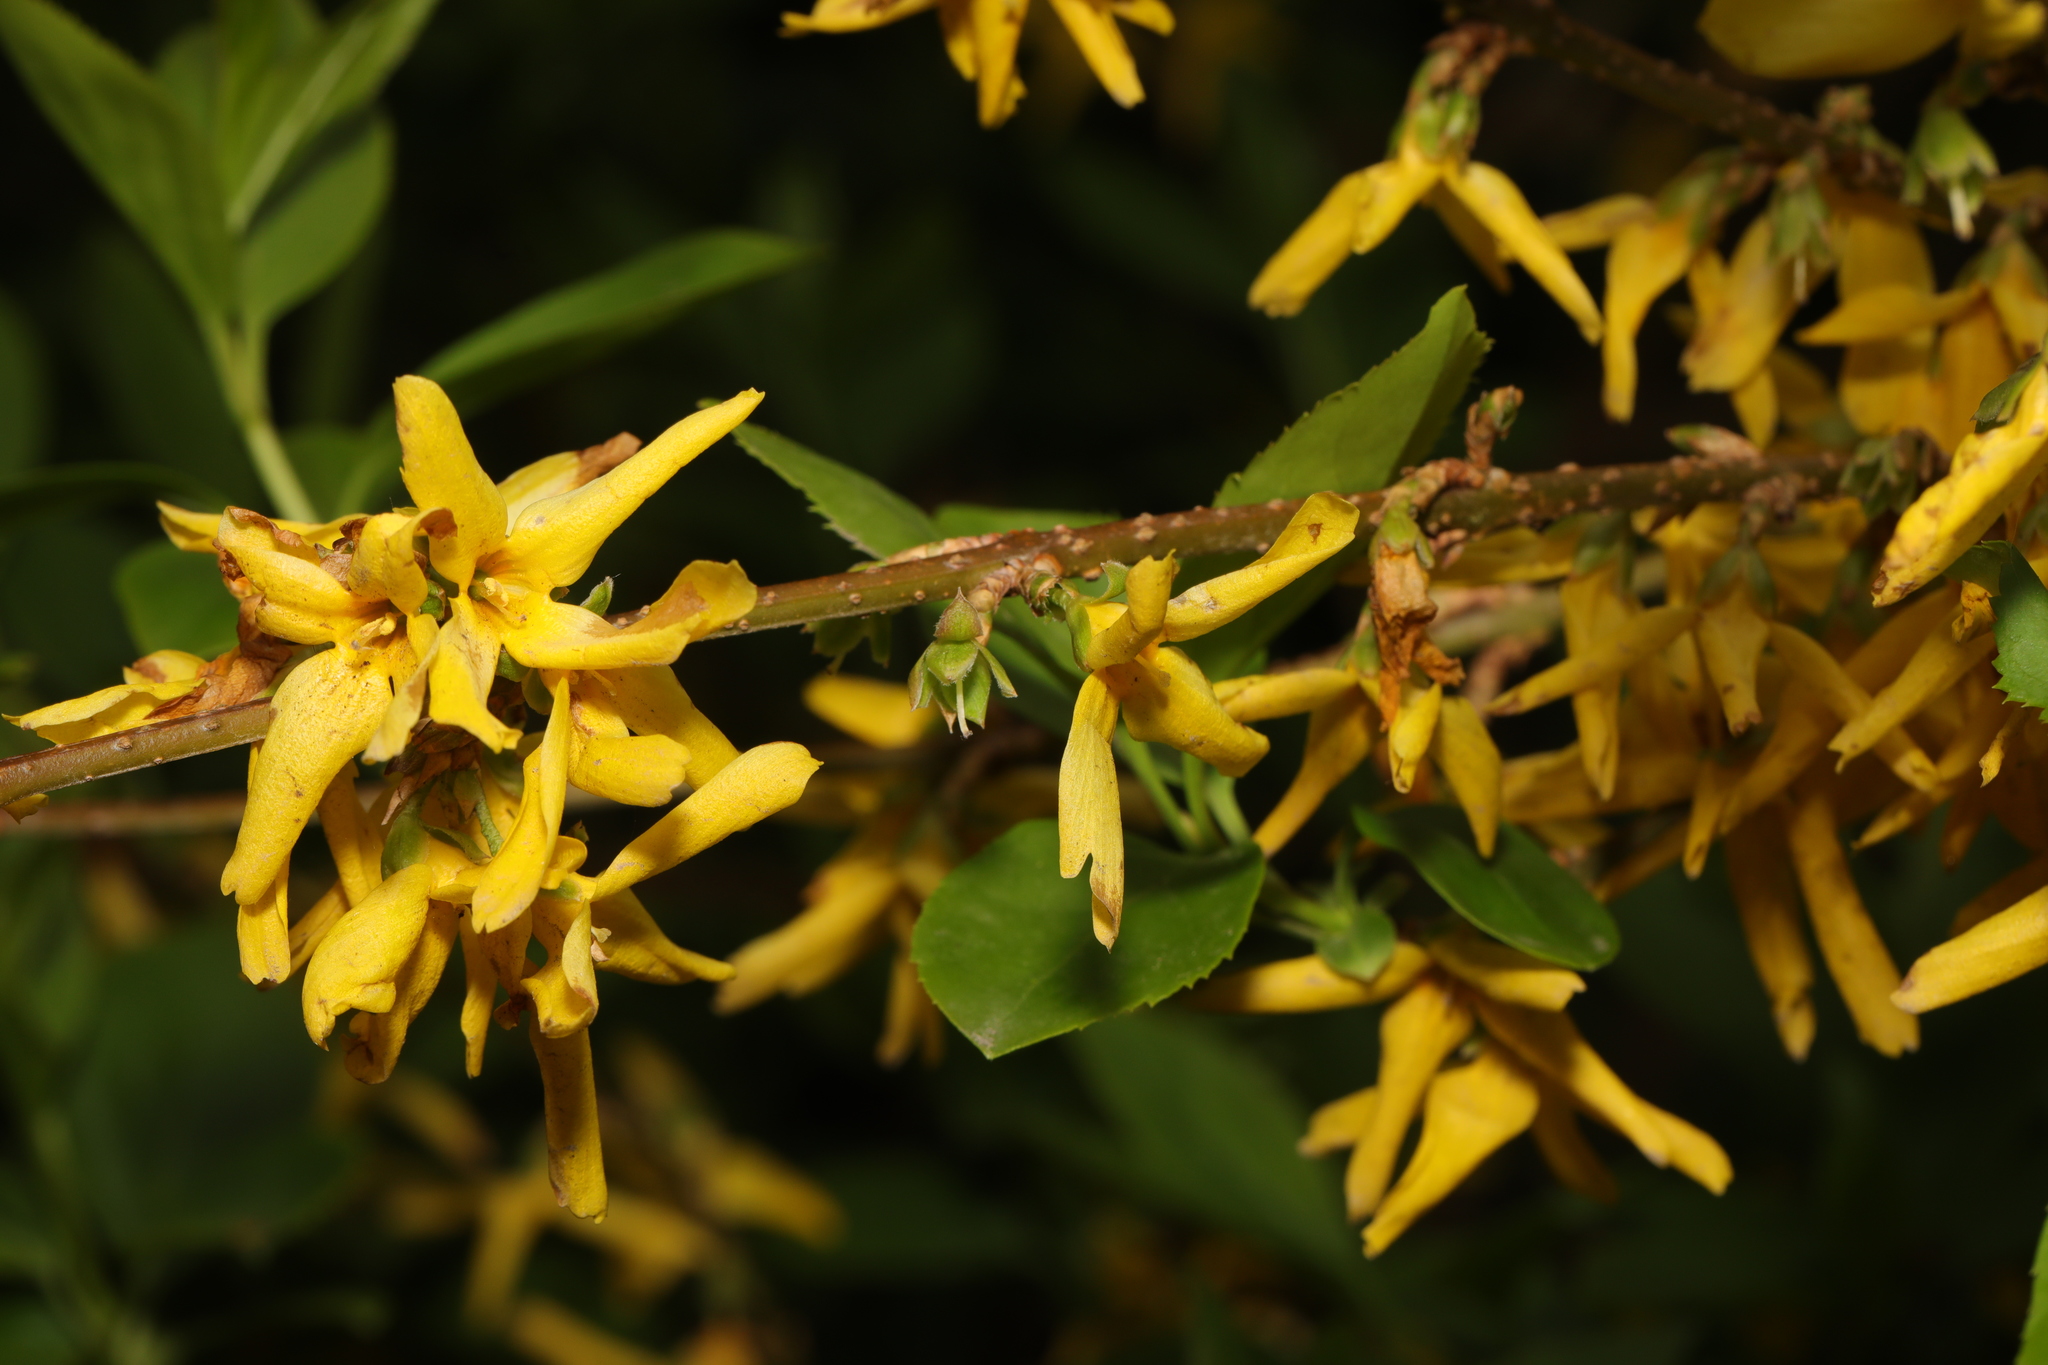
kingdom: Plantae
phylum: Tracheophyta
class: Magnoliopsida
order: Lamiales
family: Oleaceae
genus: Forsythia
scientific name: Forsythia intermedia
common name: Forsythia
